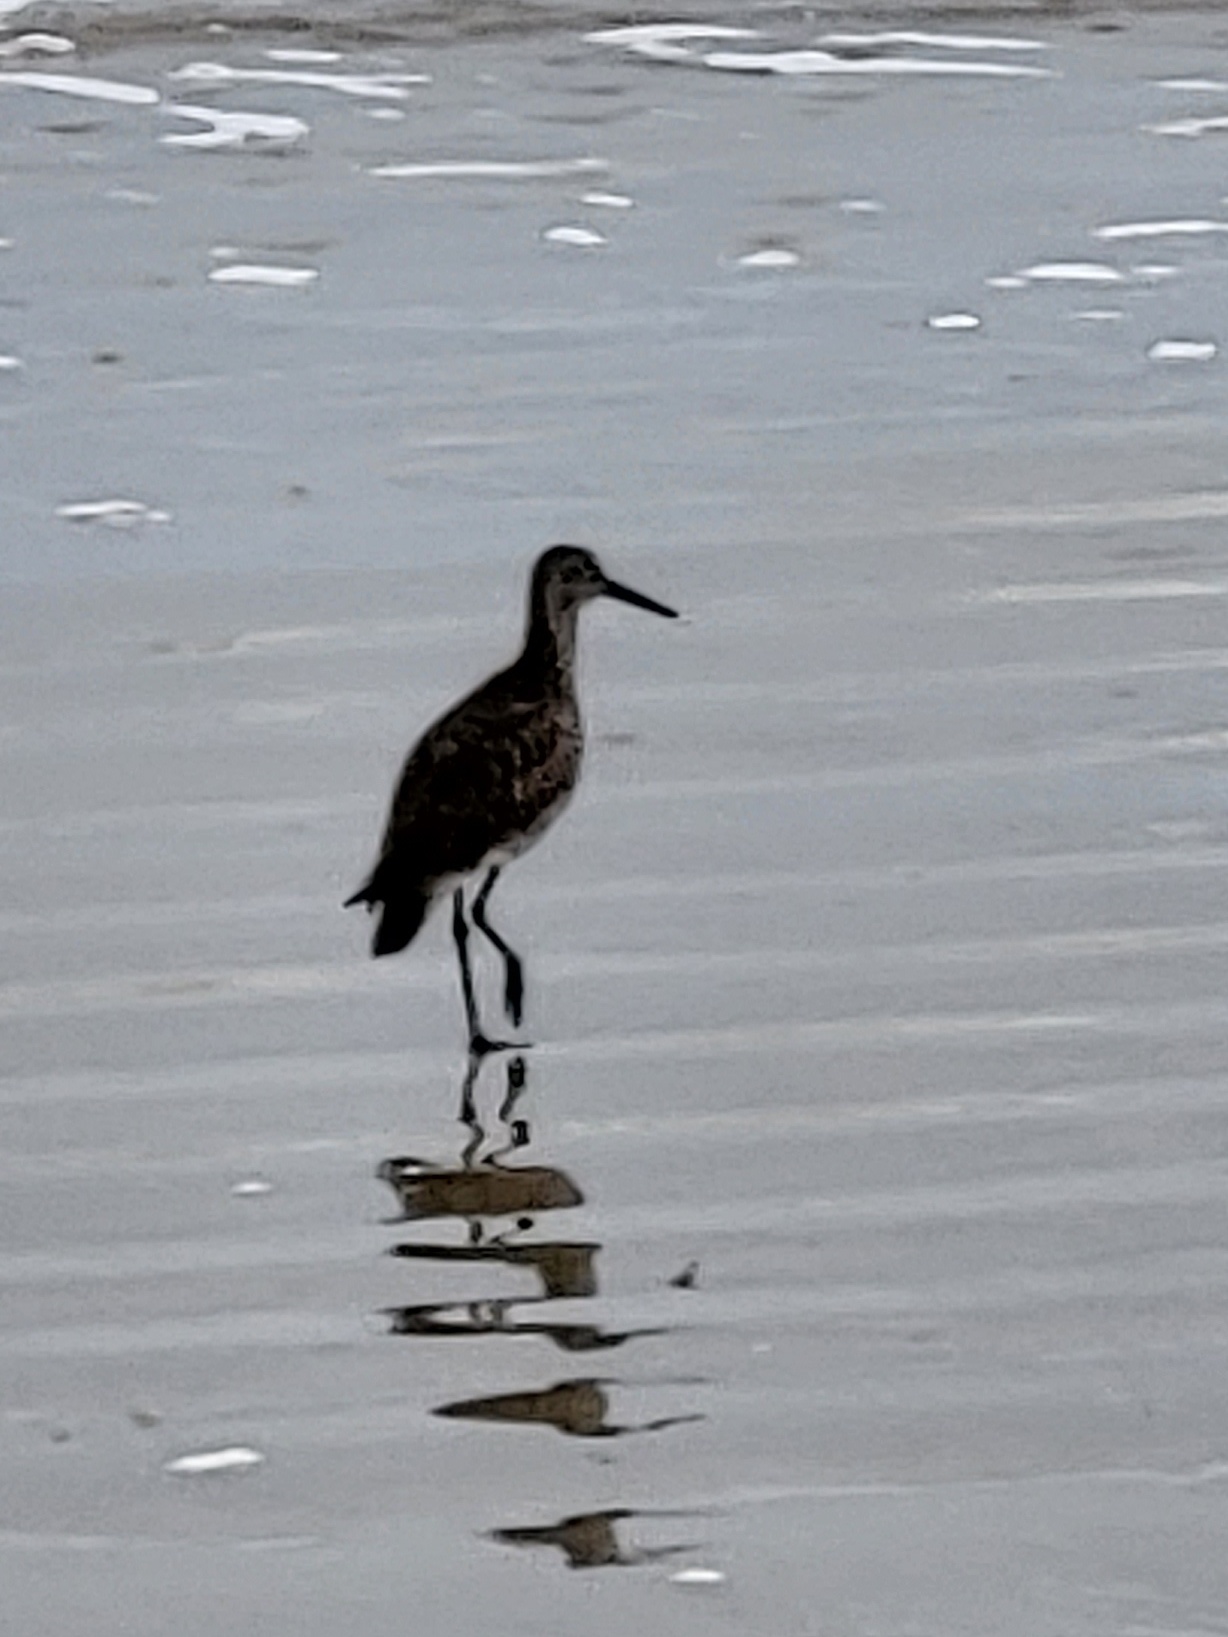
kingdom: Animalia
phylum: Chordata
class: Aves
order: Charadriiformes
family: Scolopacidae
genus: Tringa
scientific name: Tringa semipalmata
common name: Willet
